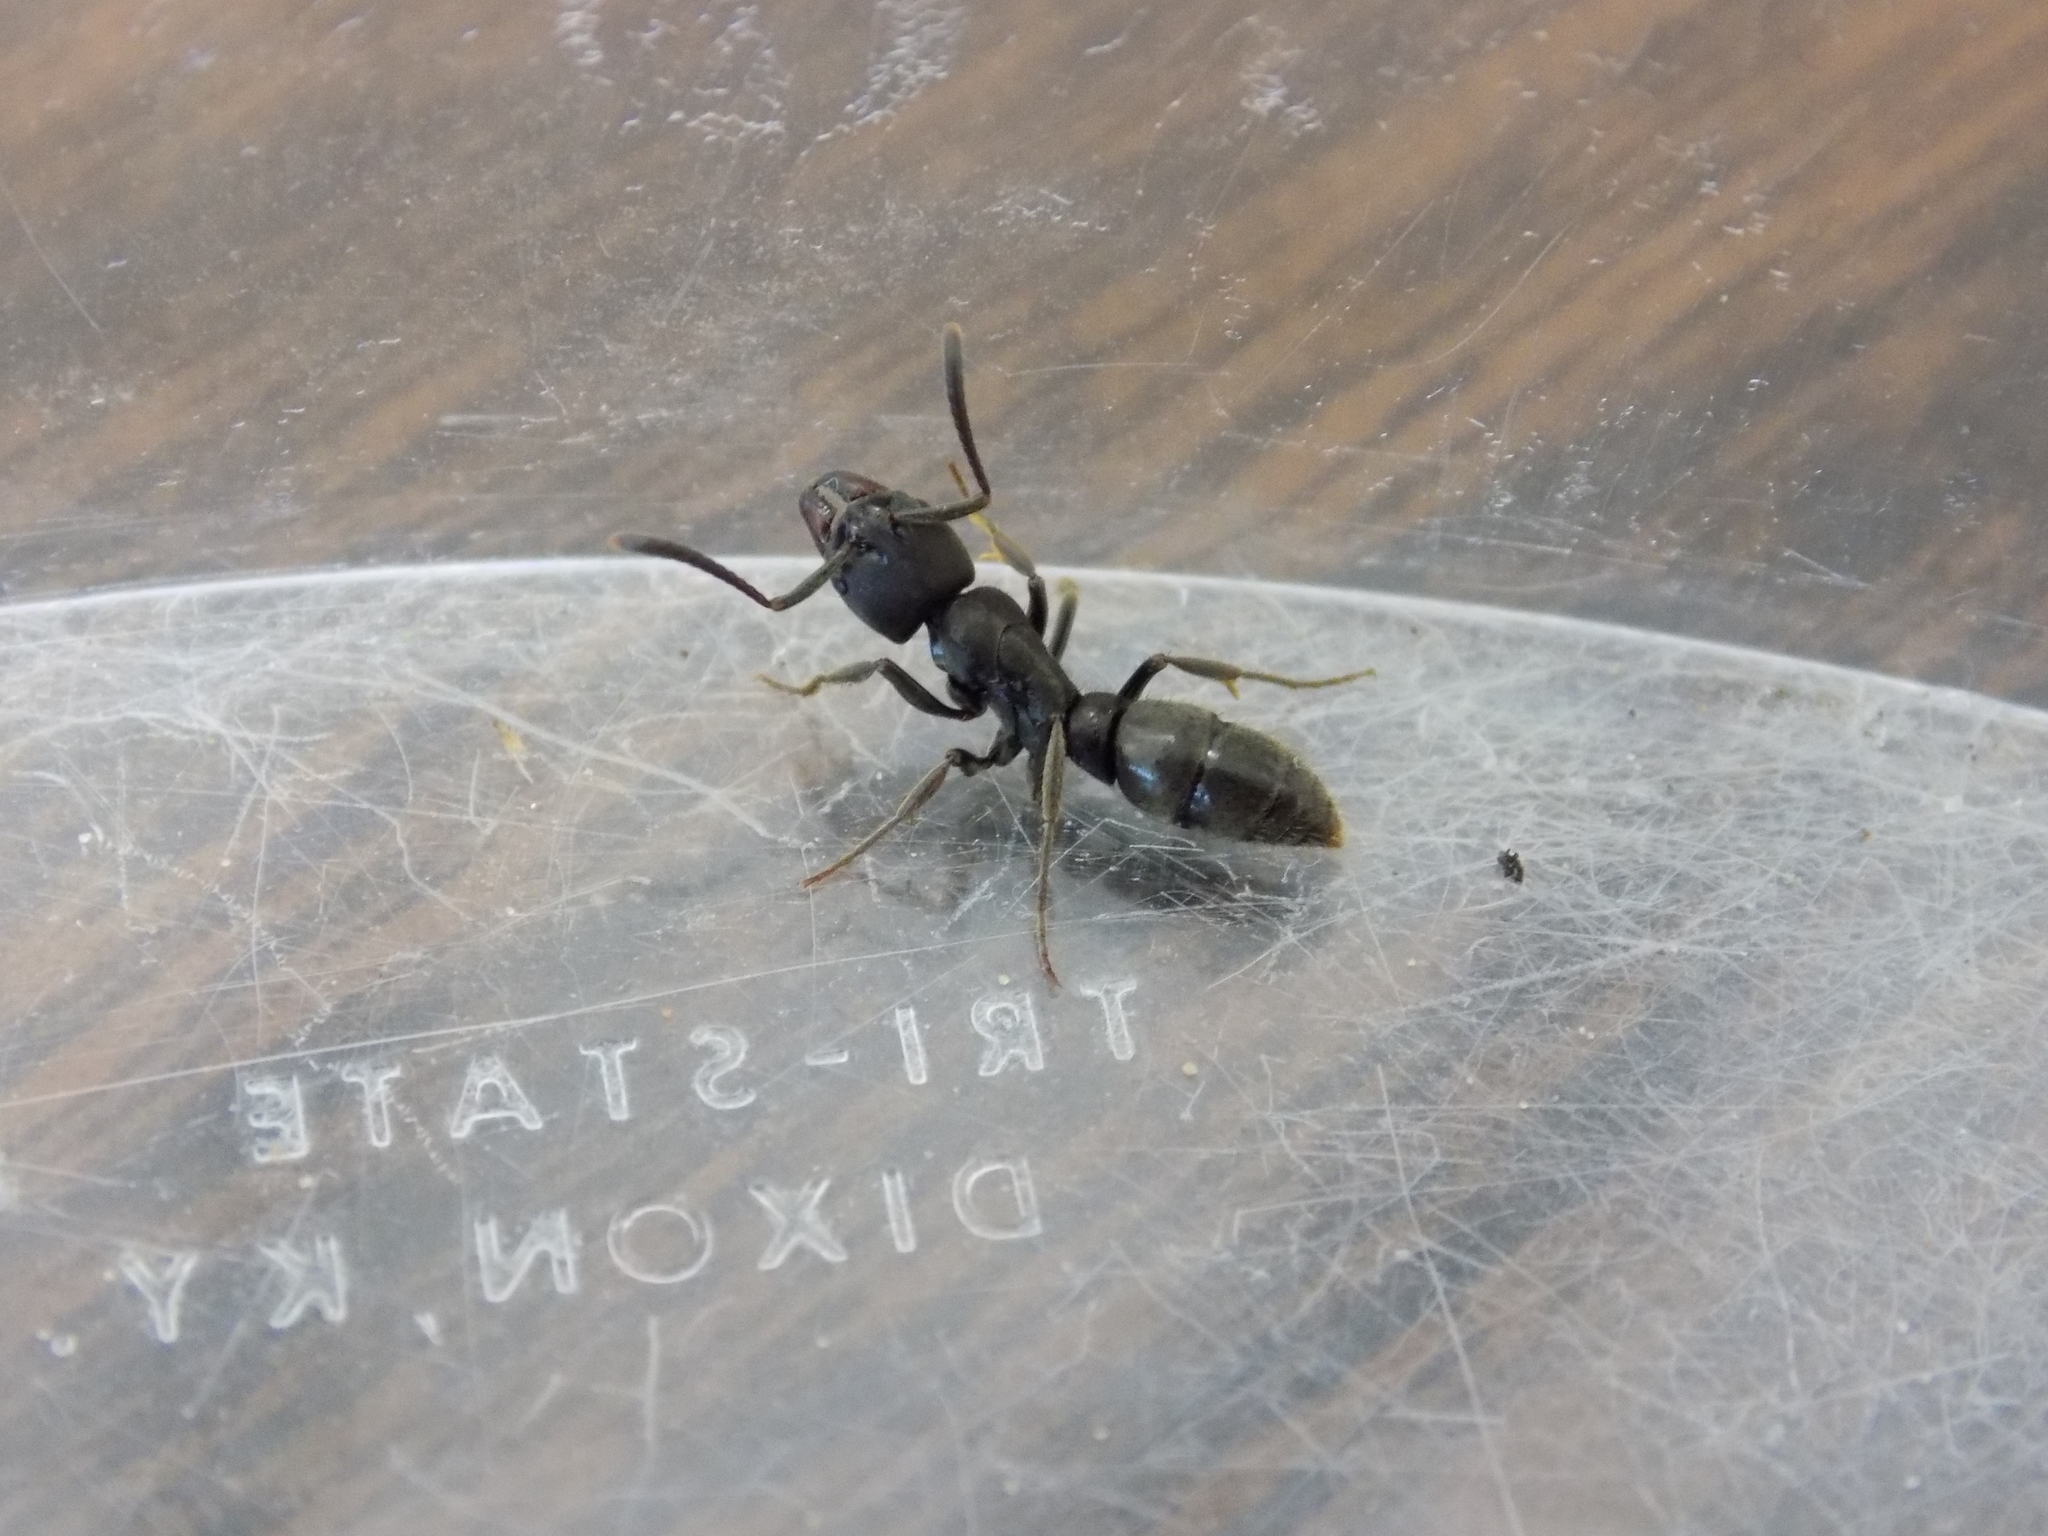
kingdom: Animalia
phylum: Arthropoda
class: Insecta
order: Hymenoptera
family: Formicidae
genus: Pachycondyla
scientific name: Pachycondyla harpax
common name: Ant
